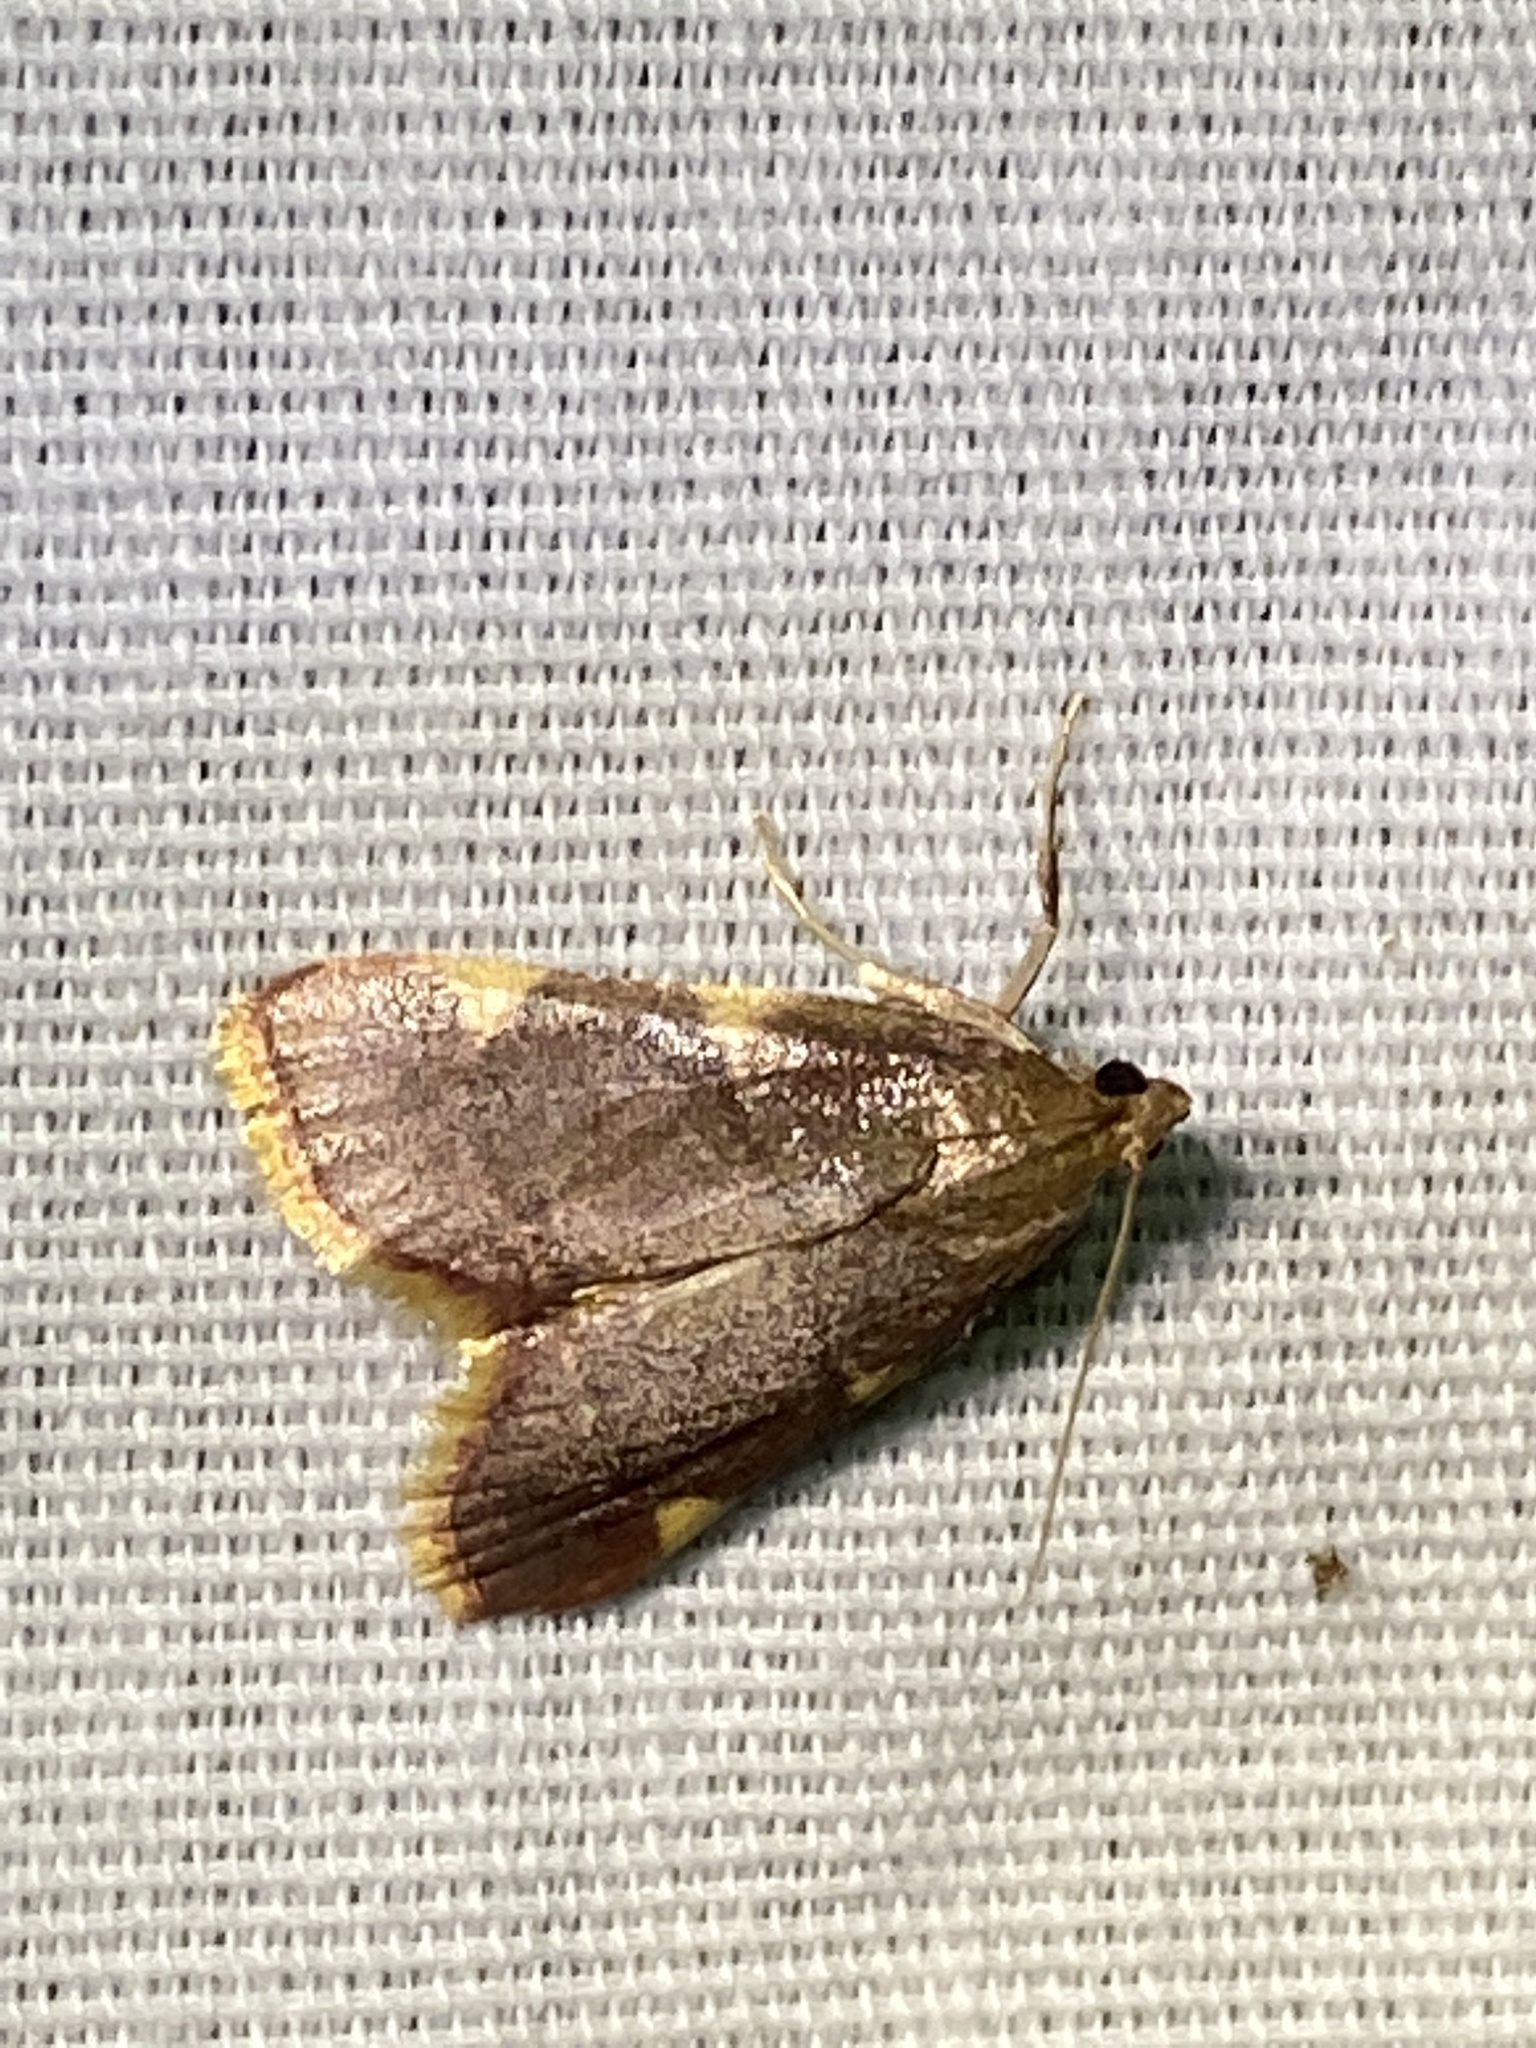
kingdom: Animalia
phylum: Arthropoda
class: Insecta
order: Lepidoptera
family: Pyralidae
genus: Hypsopygia
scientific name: Hypsopygia olinalis
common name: Yellow-fringed dolichomia moth
